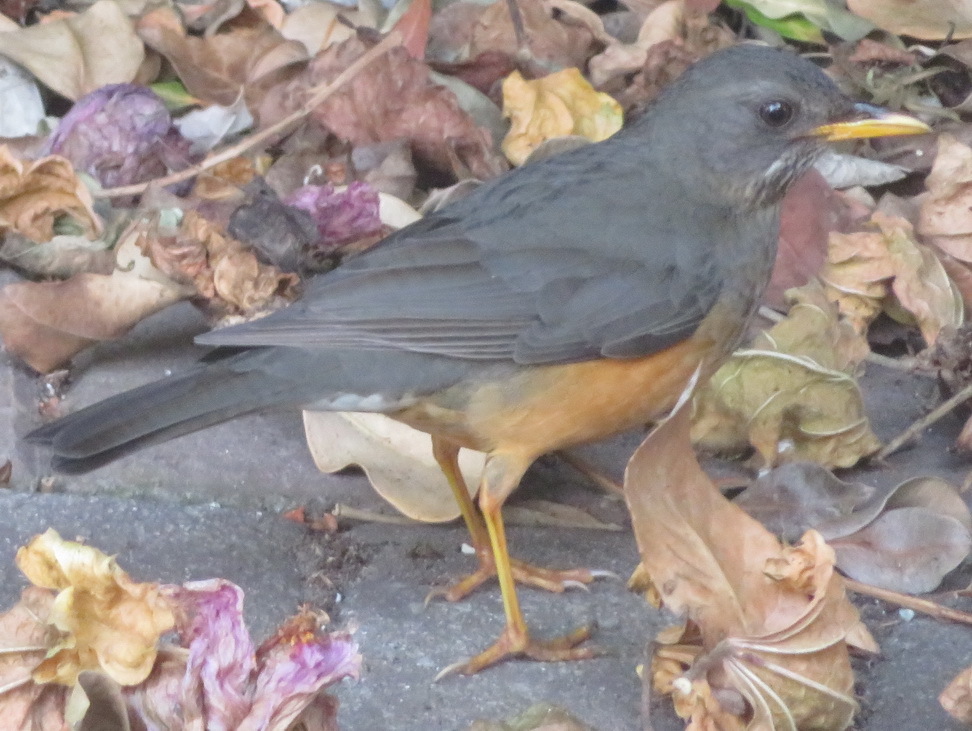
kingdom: Animalia
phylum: Chordata
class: Aves
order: Passeriformes
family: Turdidae
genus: Turdus
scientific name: Turdus olivaceus
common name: Olive thrush
